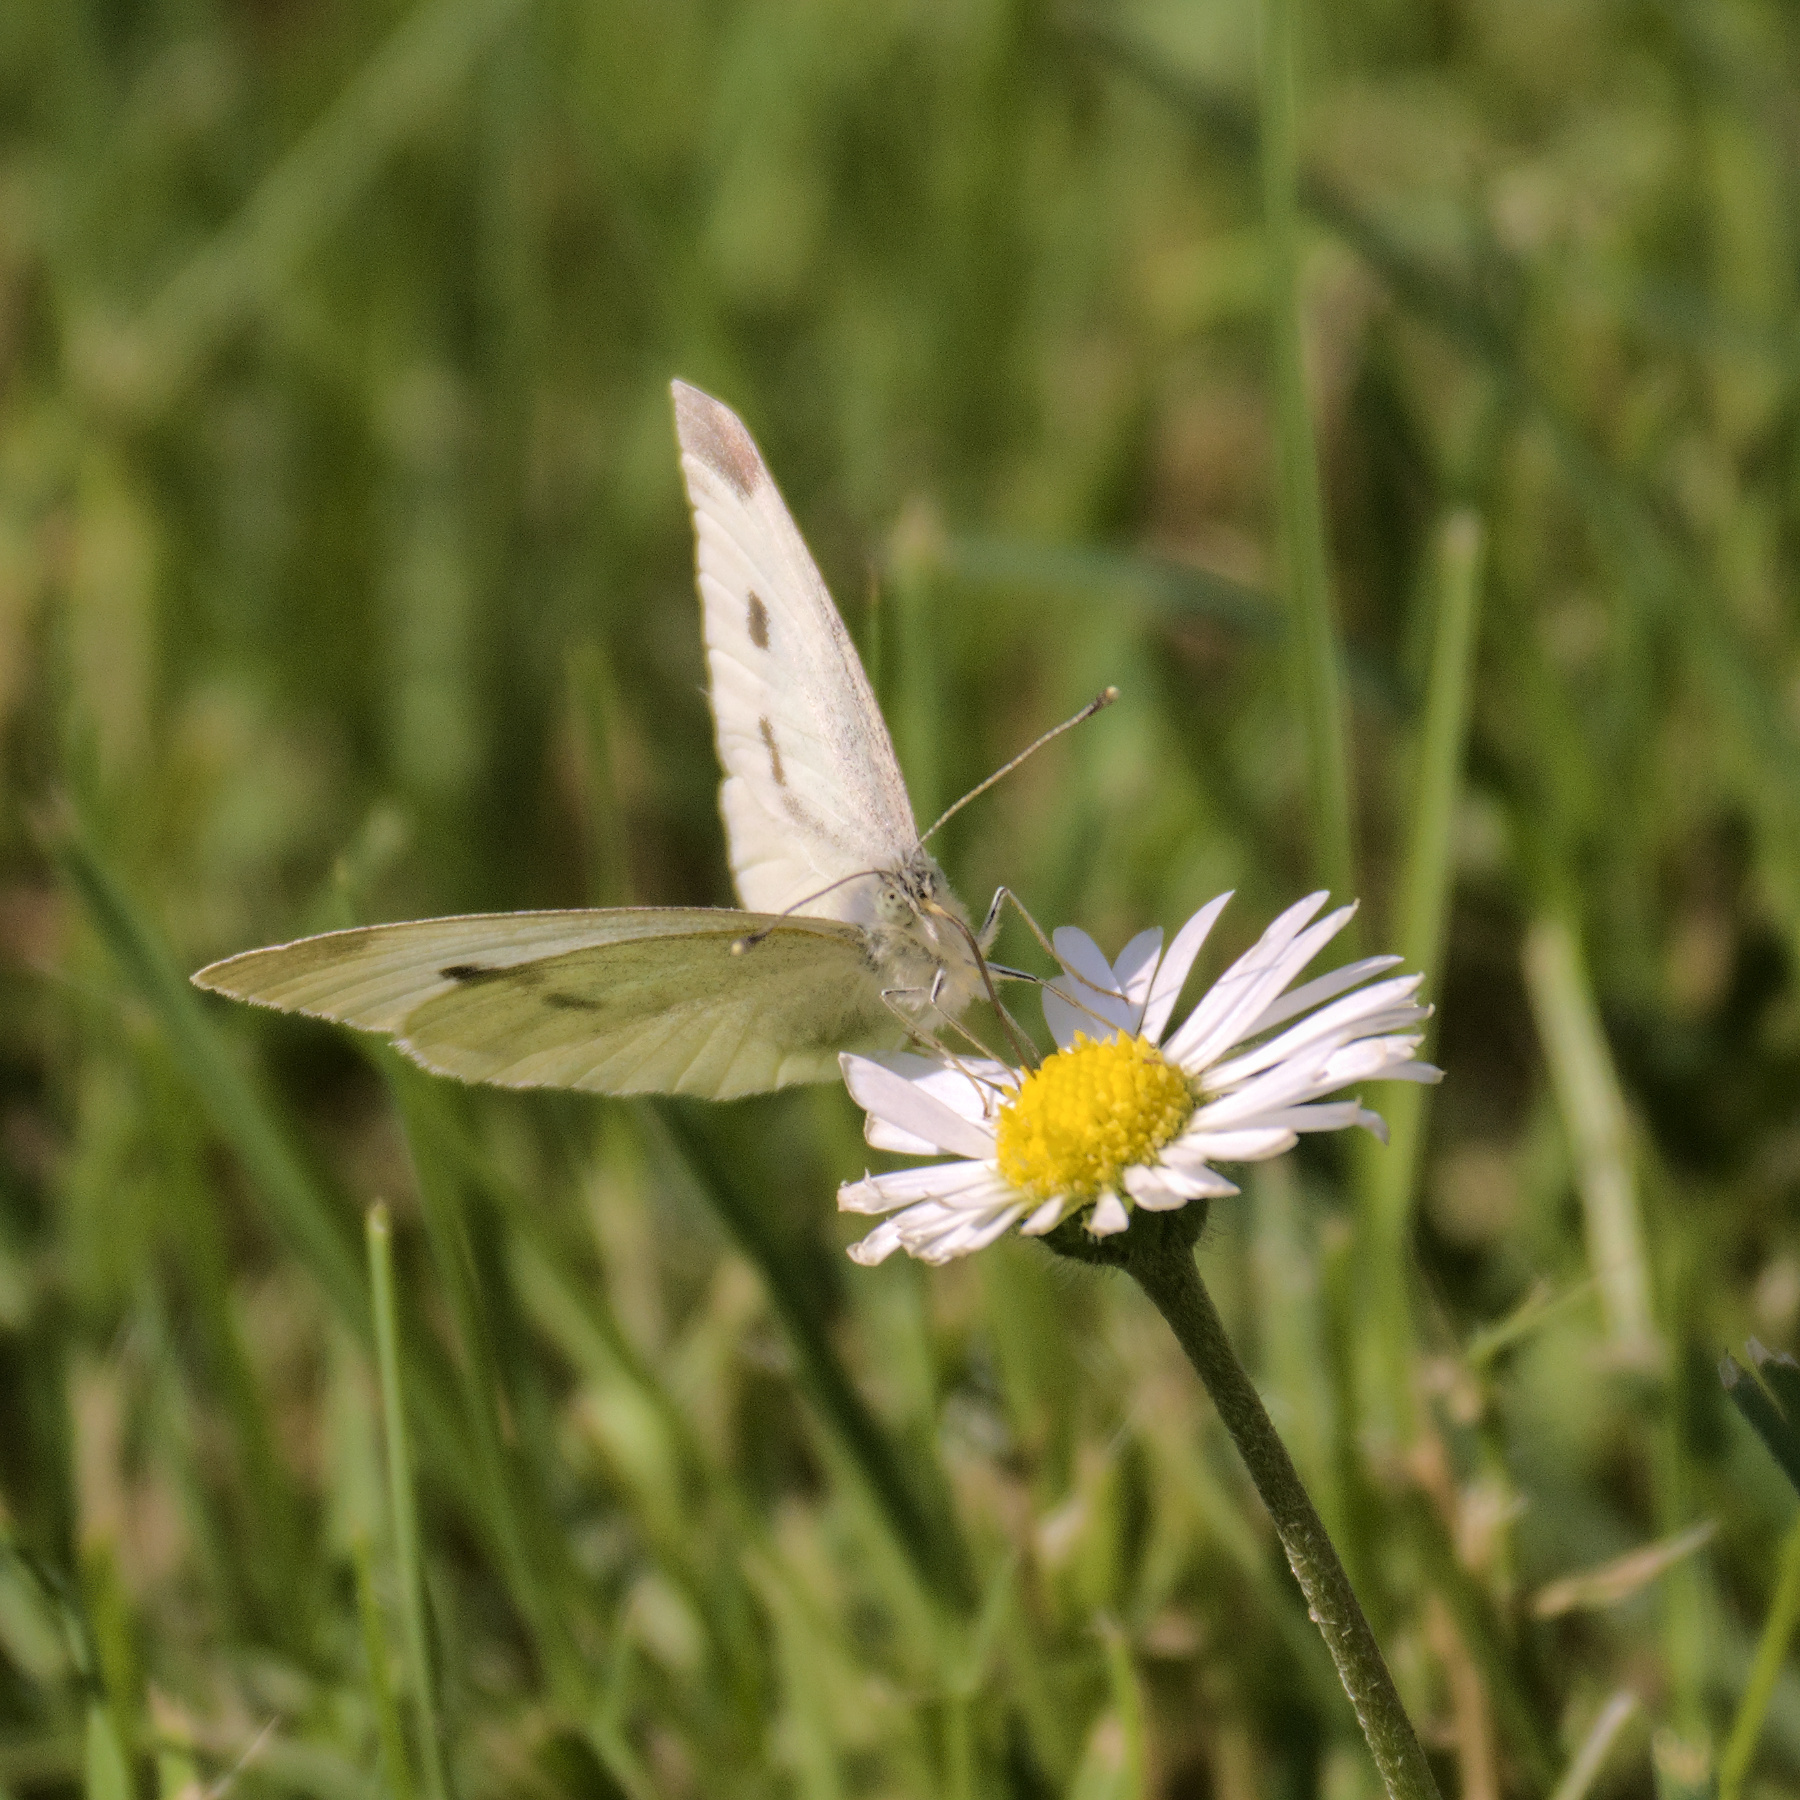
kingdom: Animalia
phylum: Arthropoda
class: Insecta
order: Lepidoptera
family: Pieridae
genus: Pieris
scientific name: Pieris rapae
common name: Small white
